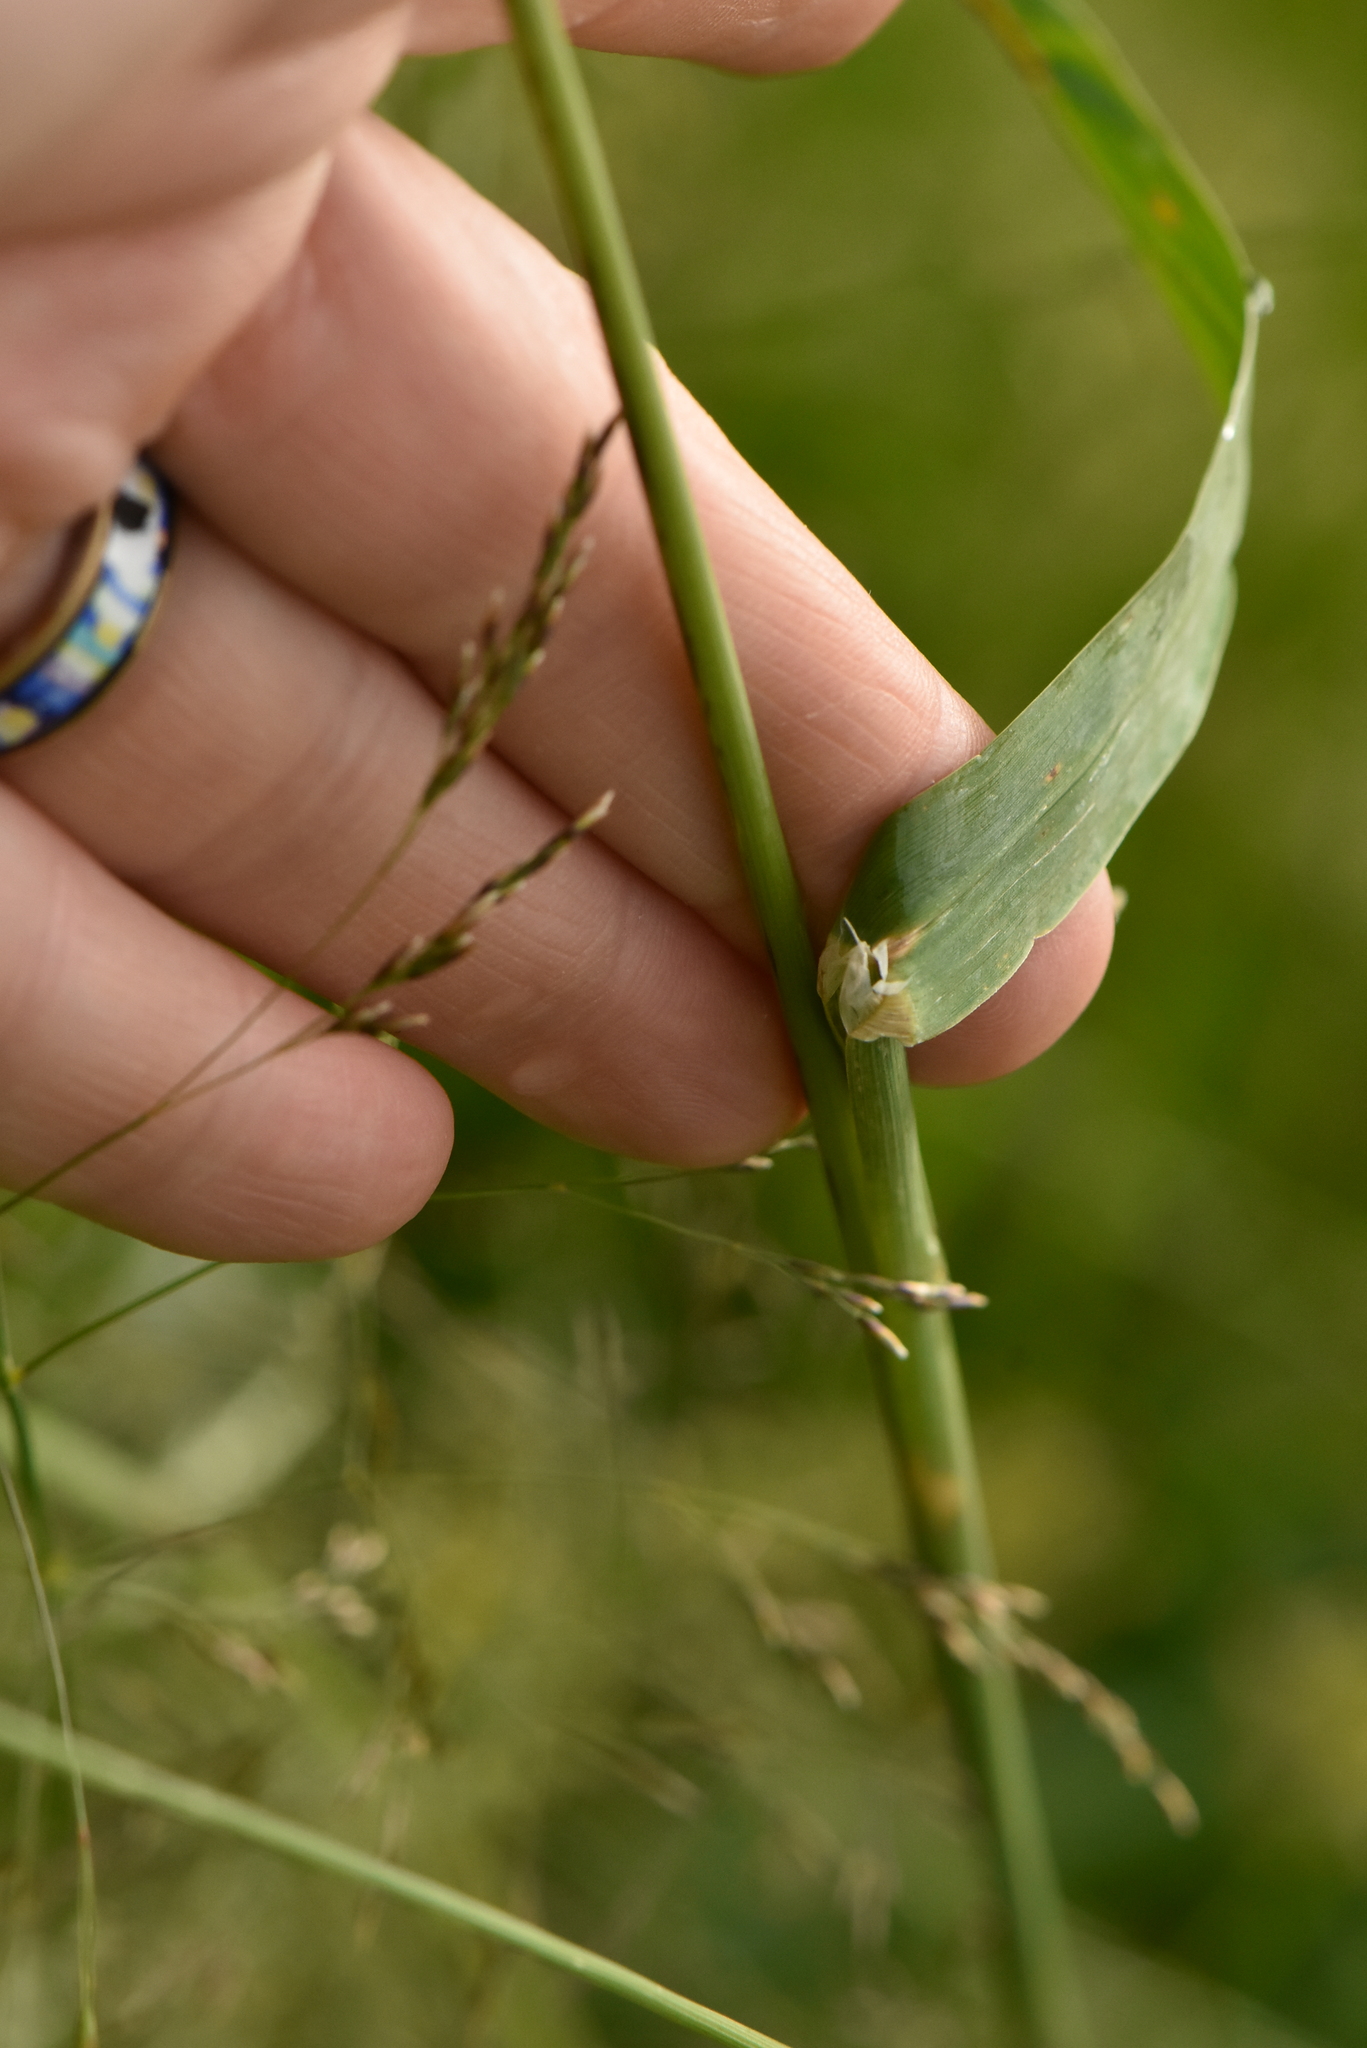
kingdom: Plantae
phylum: Tracheophyta
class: Liliopsida
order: Poales
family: Poaceae
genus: Dactylis
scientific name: Dactylis glomerata
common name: Orchardgrass
